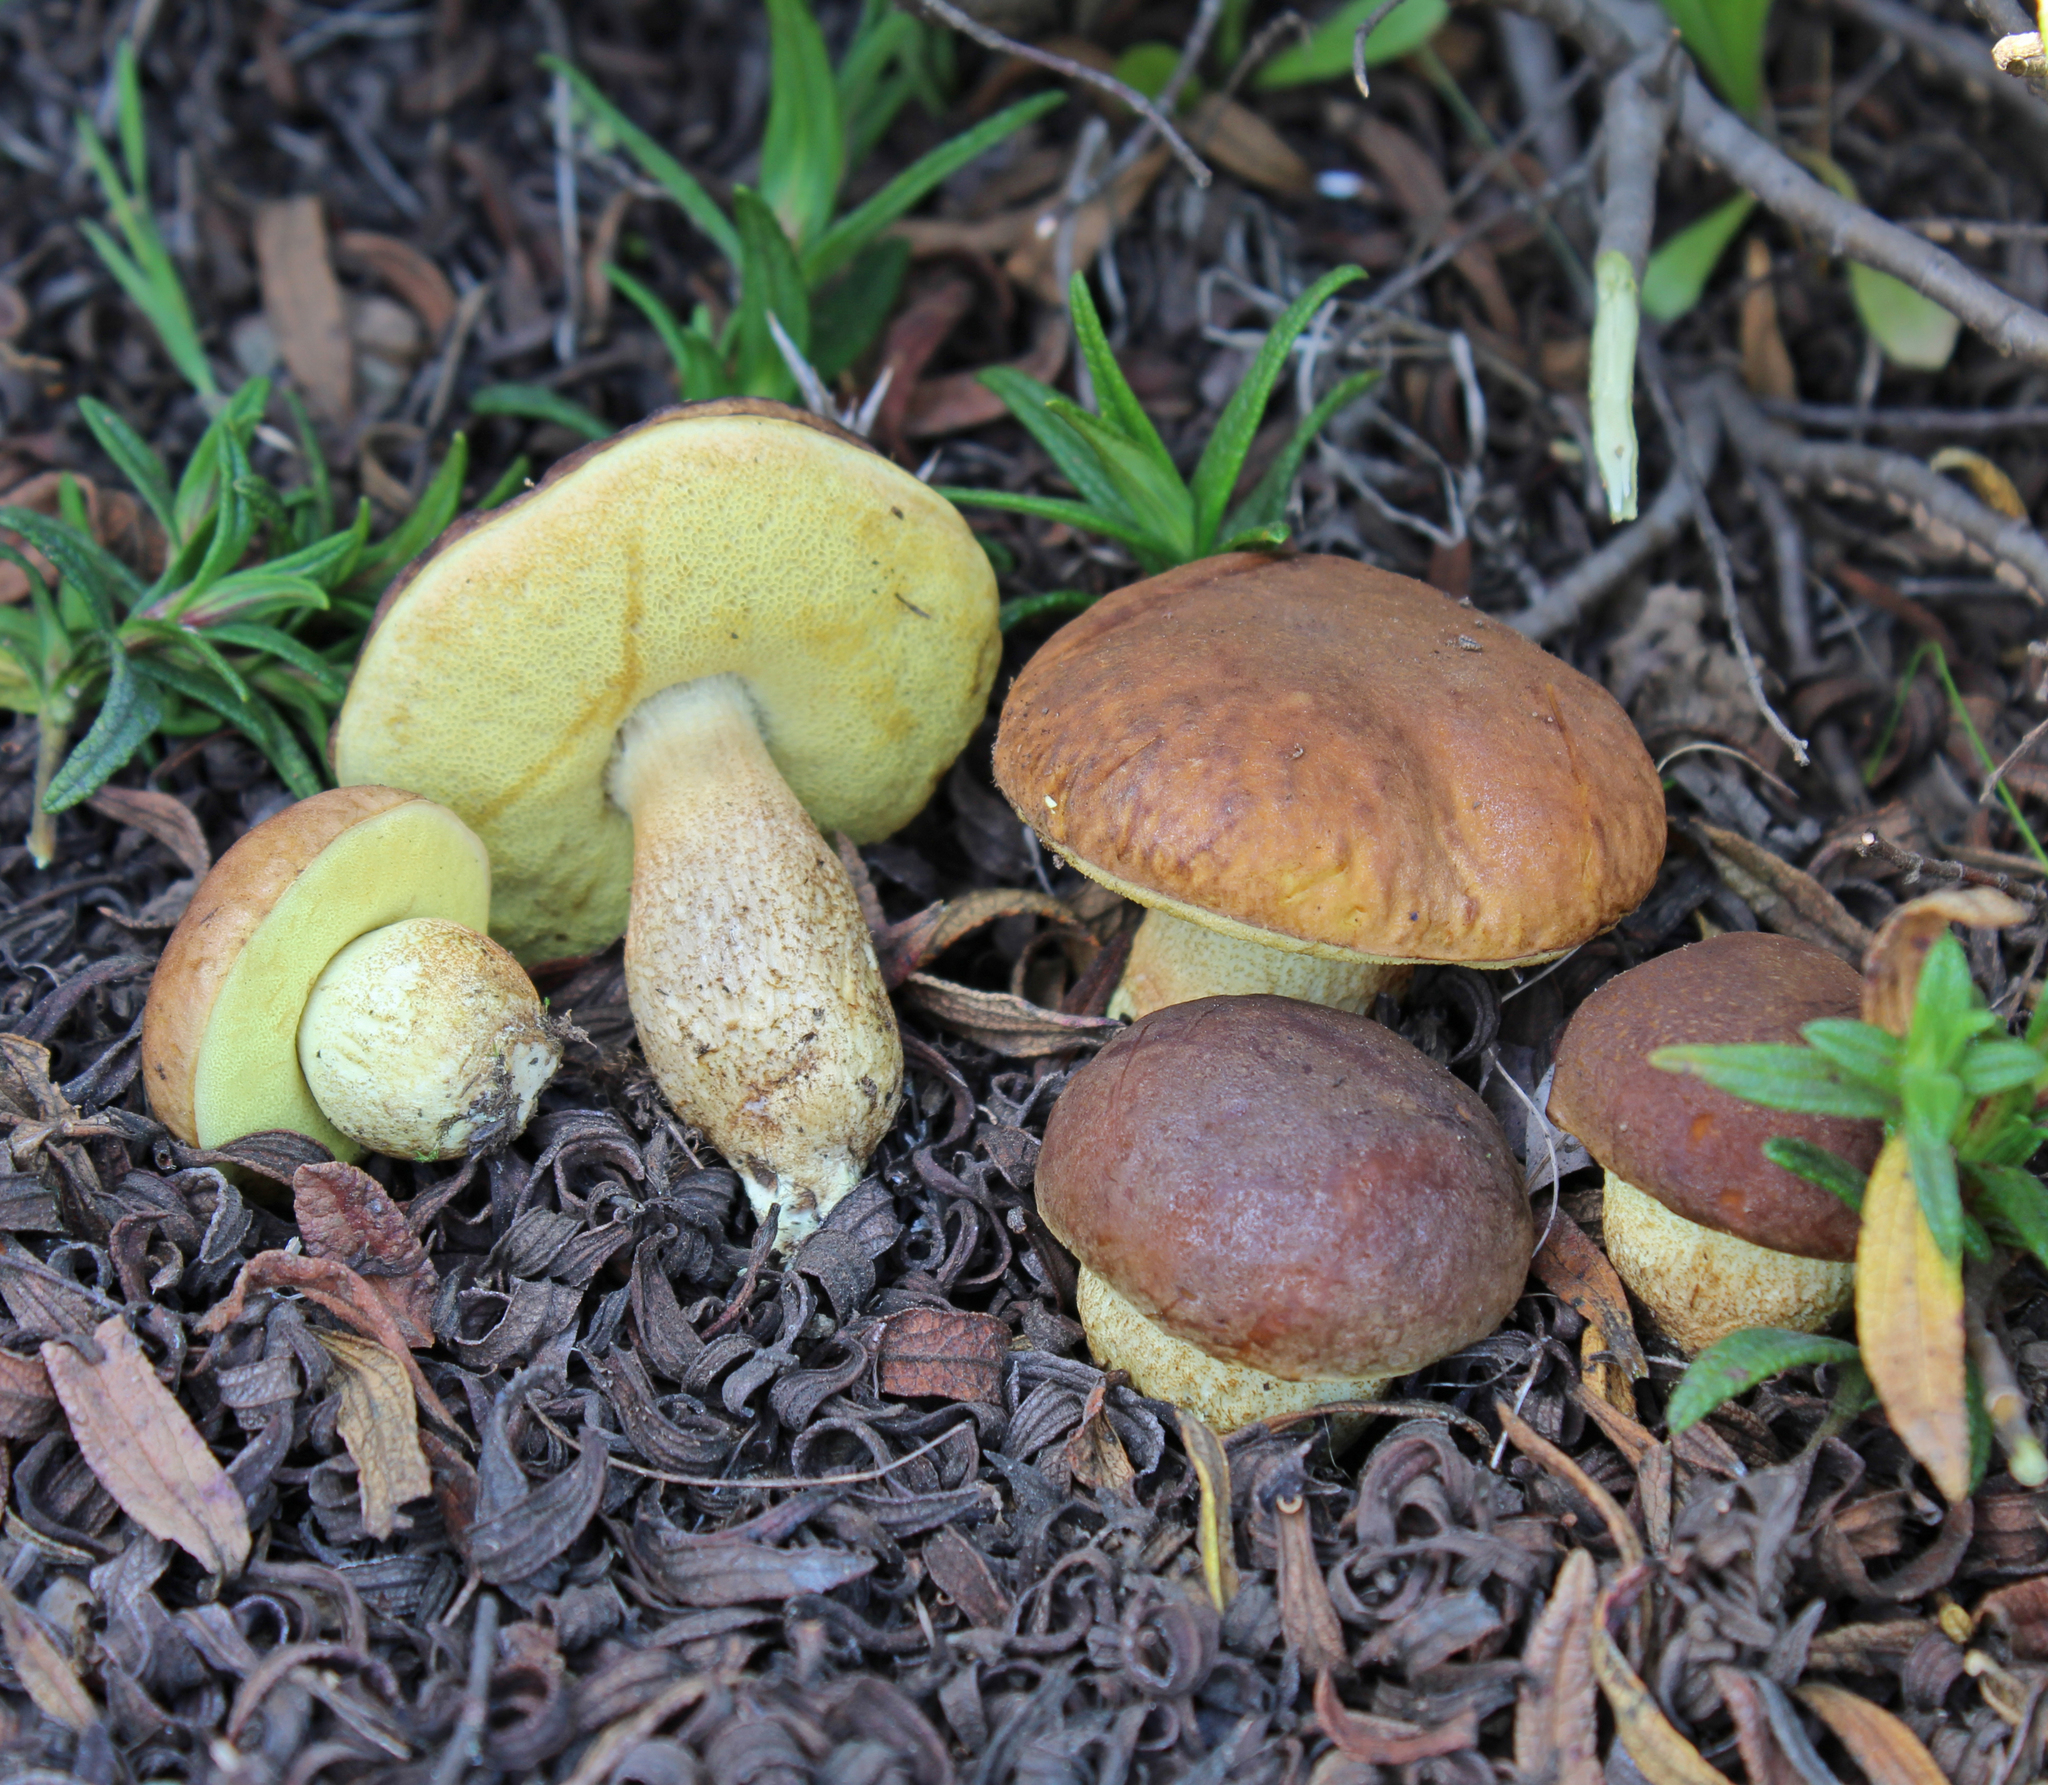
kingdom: Fungi
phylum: Basidiomycota
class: Agaricomycetes
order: Boletales
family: Boletaceae
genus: Leccinellum
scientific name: Leccinellum corsicum
